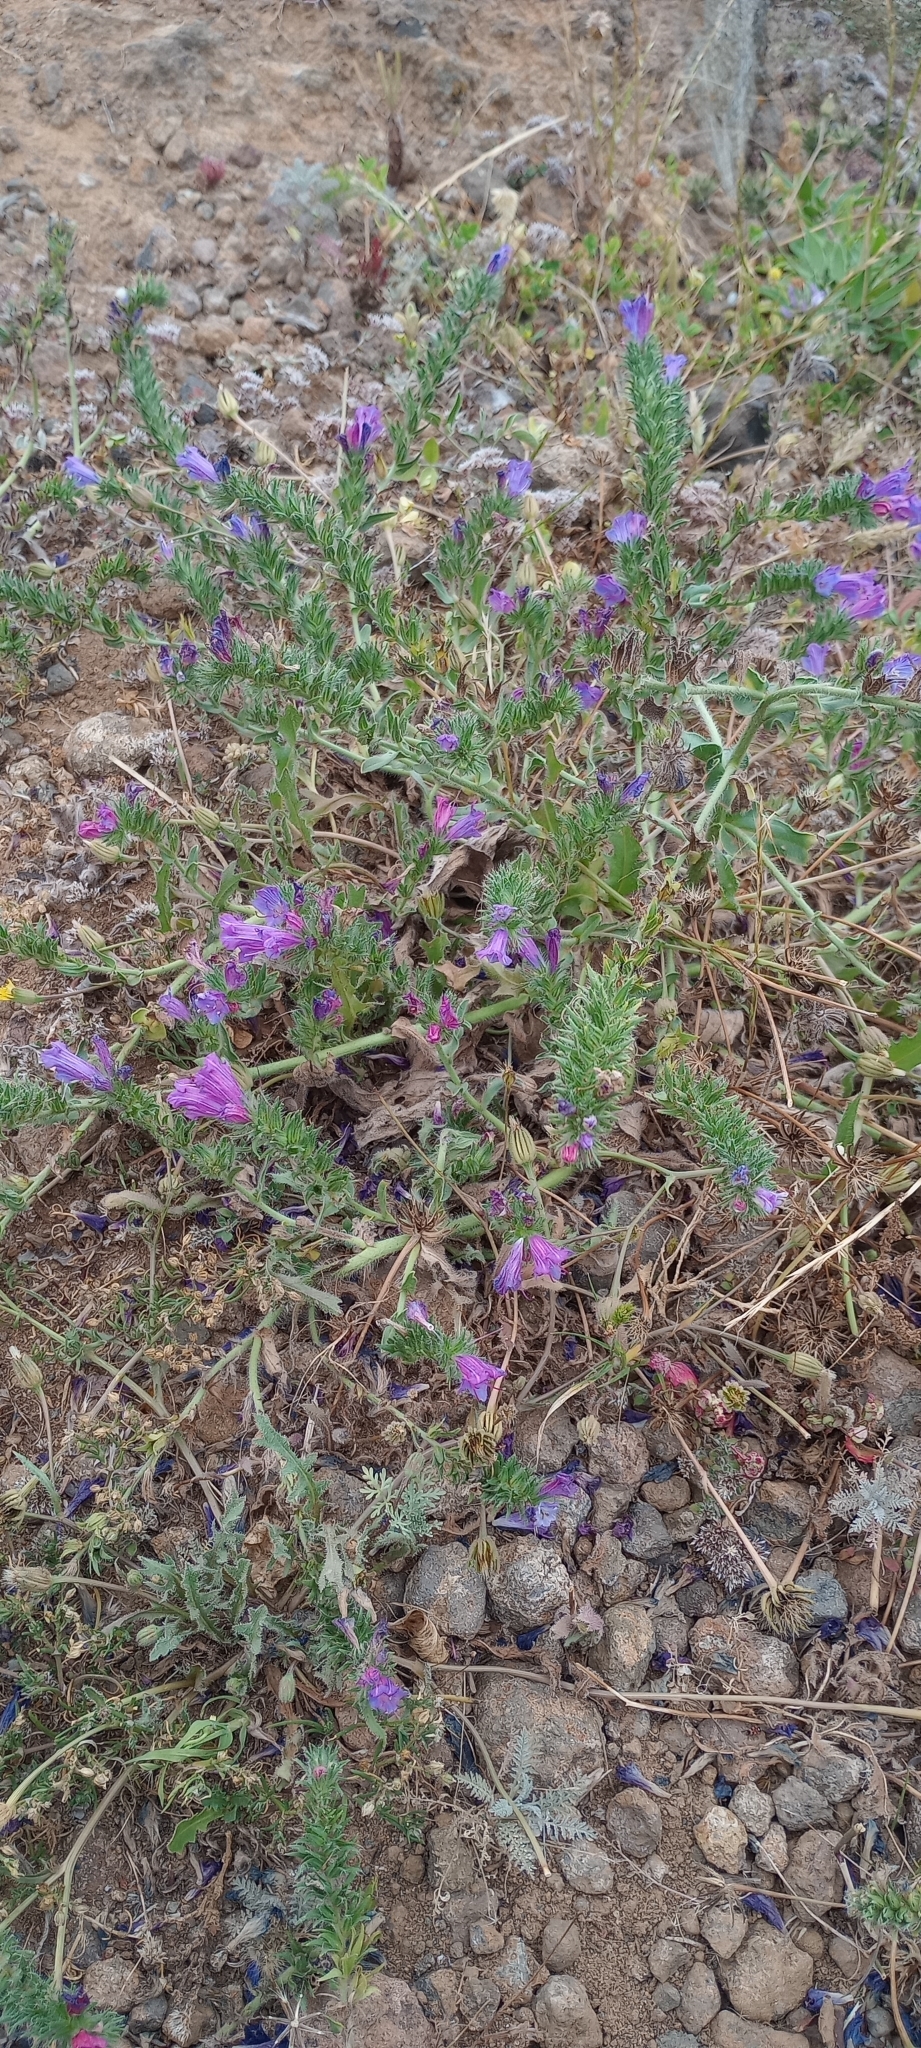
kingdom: Plantae
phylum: Tracheophyta
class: Magnoliopsida
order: Boraginales
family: Boraginaceae
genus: Echium
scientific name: Echium plantagineum
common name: Purple viper's-bugloss
